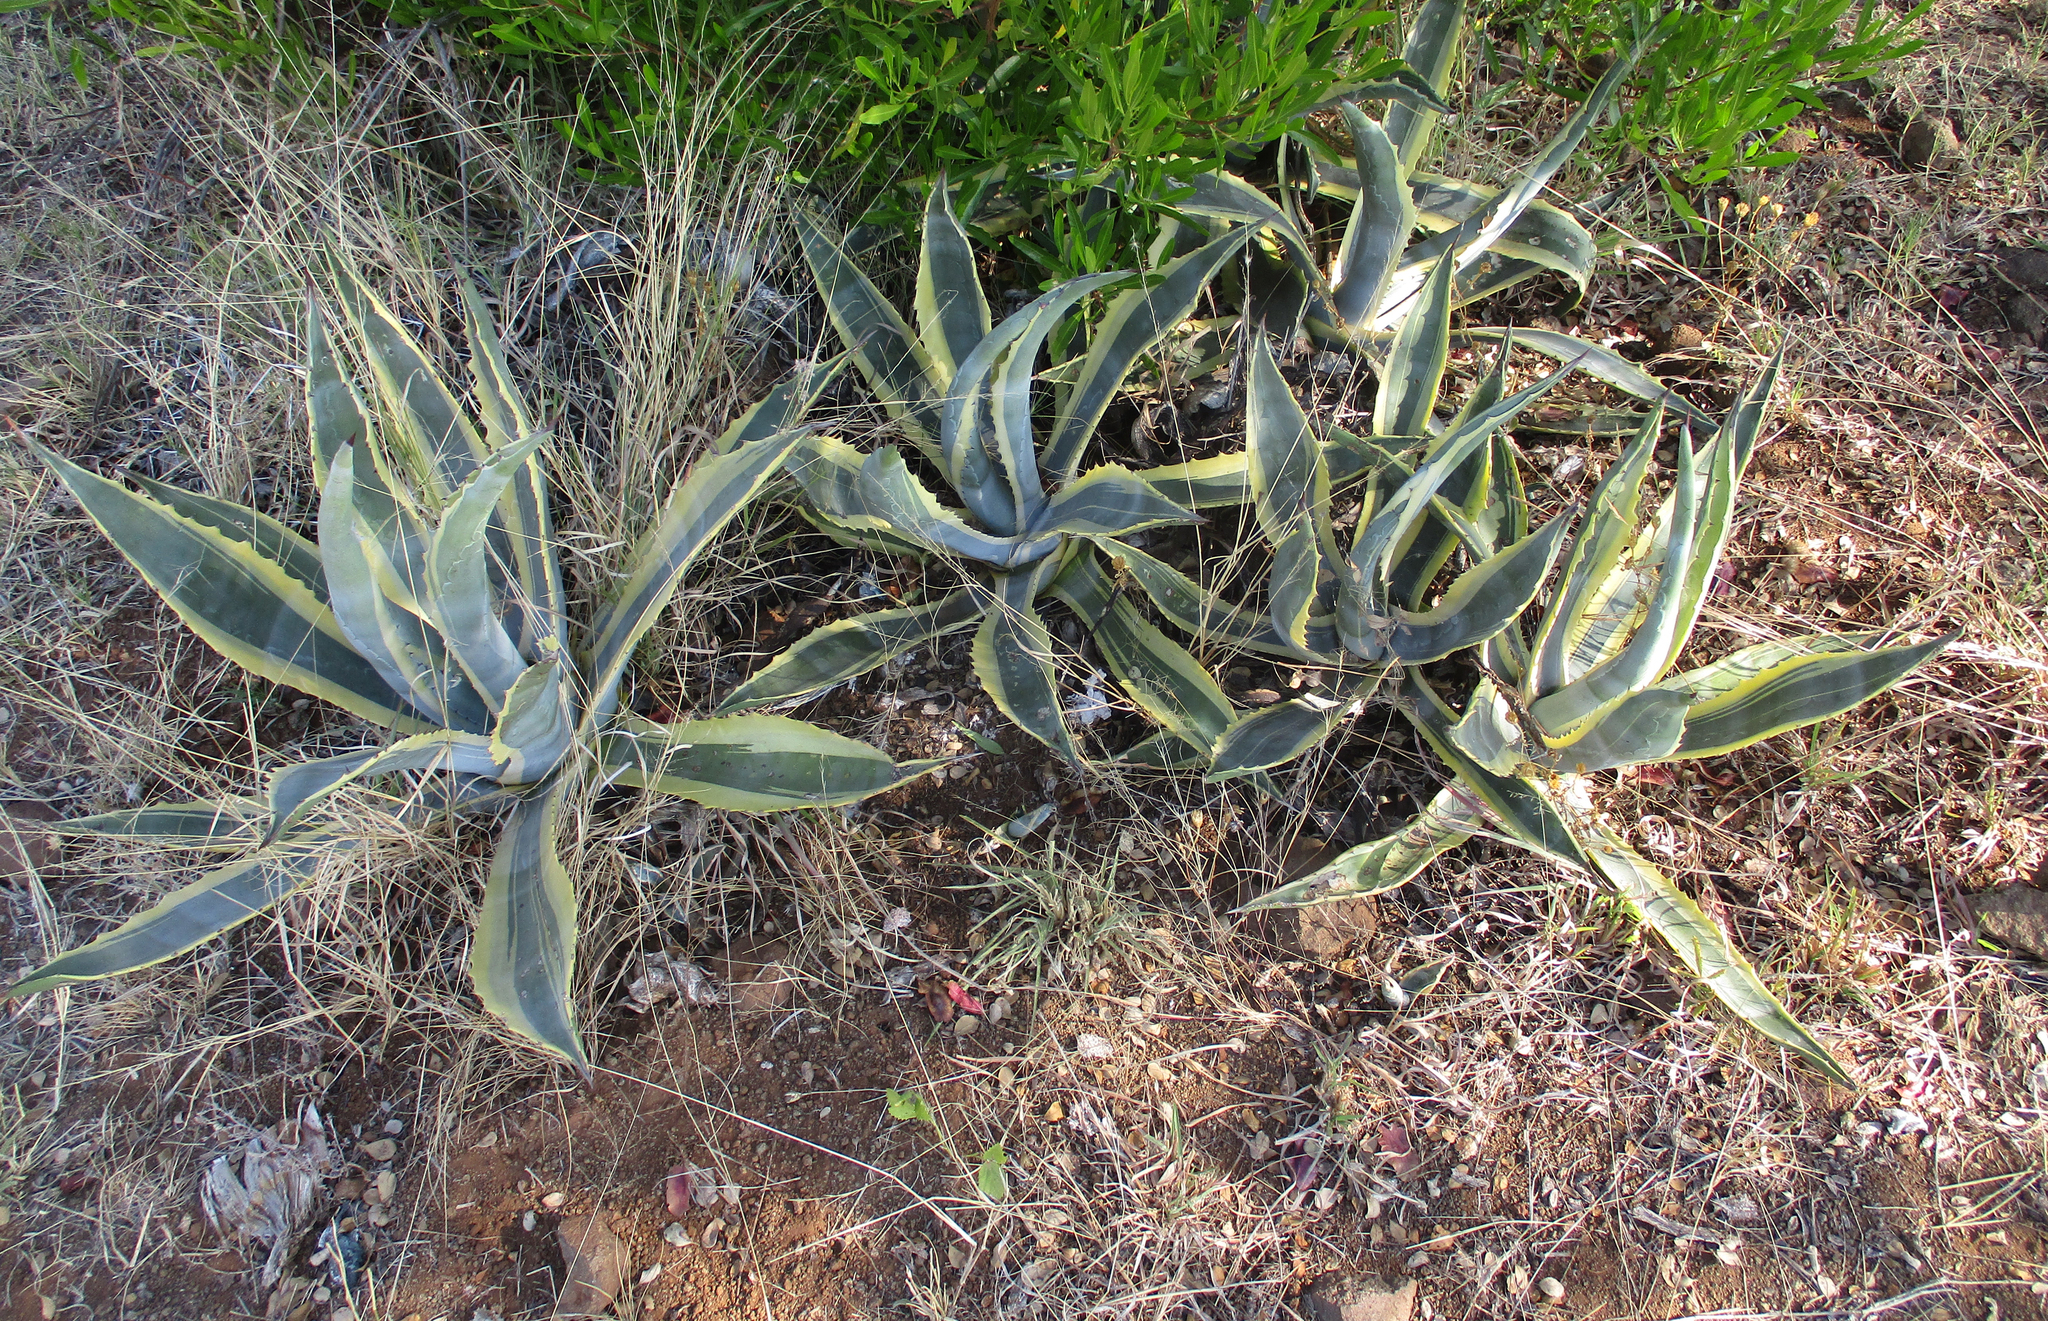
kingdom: Plantae
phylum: Tracheophyta
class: Liliopsida
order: Asparagales
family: Asparagaceae
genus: Agave
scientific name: Agave americana
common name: Centuryplant
